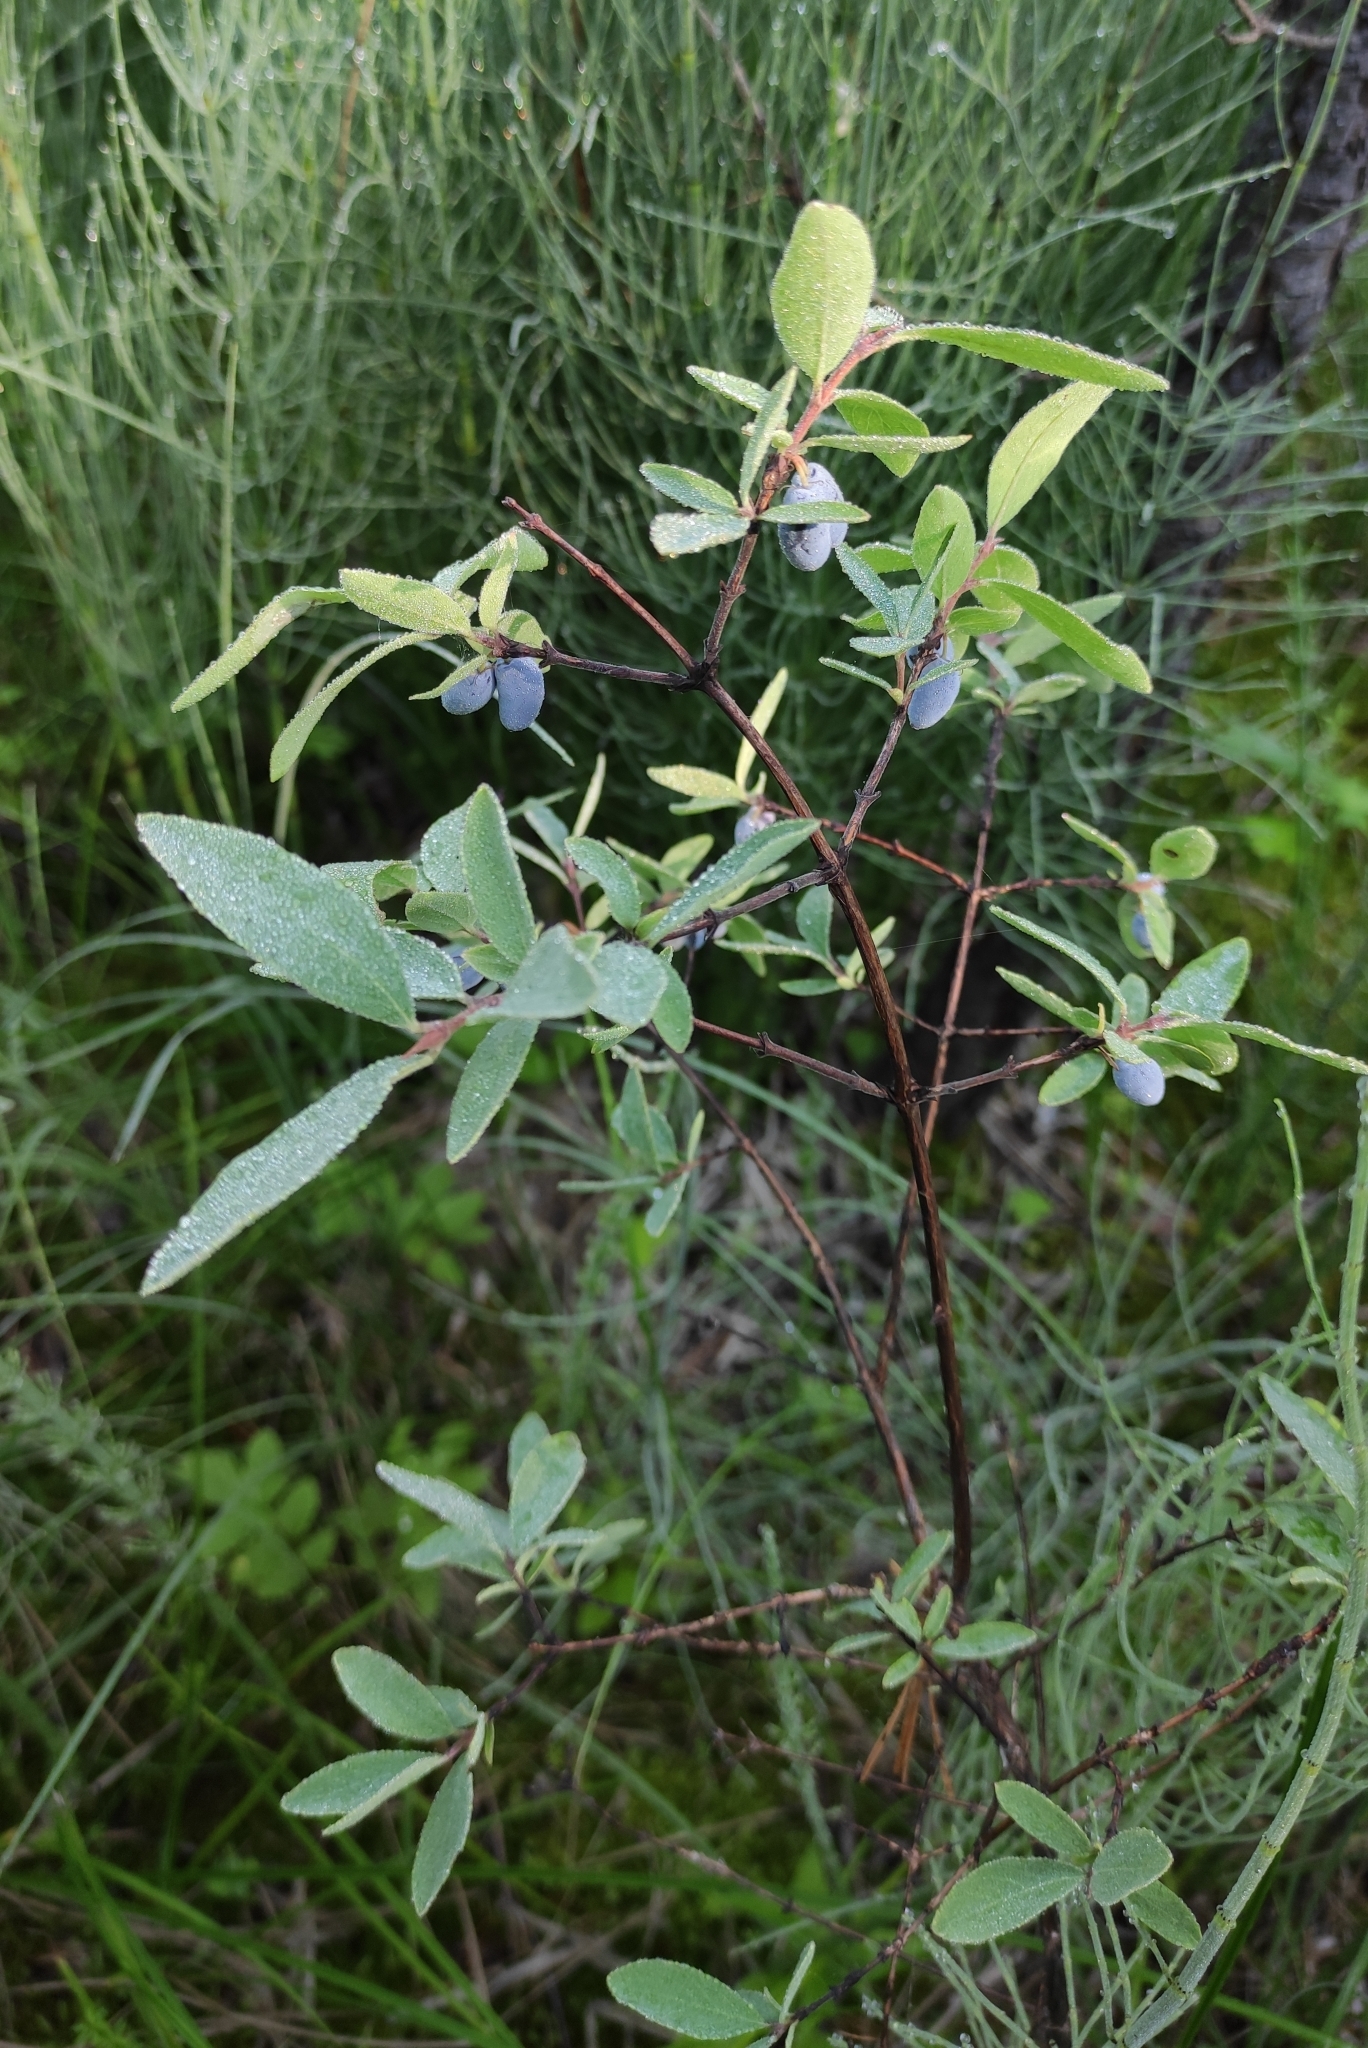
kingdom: Plantae
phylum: Tracheophyta
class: Magnoliopsida
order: Dipsacales
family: Caprifoliaceae
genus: Lonicera
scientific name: Lonicera caerulea
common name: Blue honeysuckle
